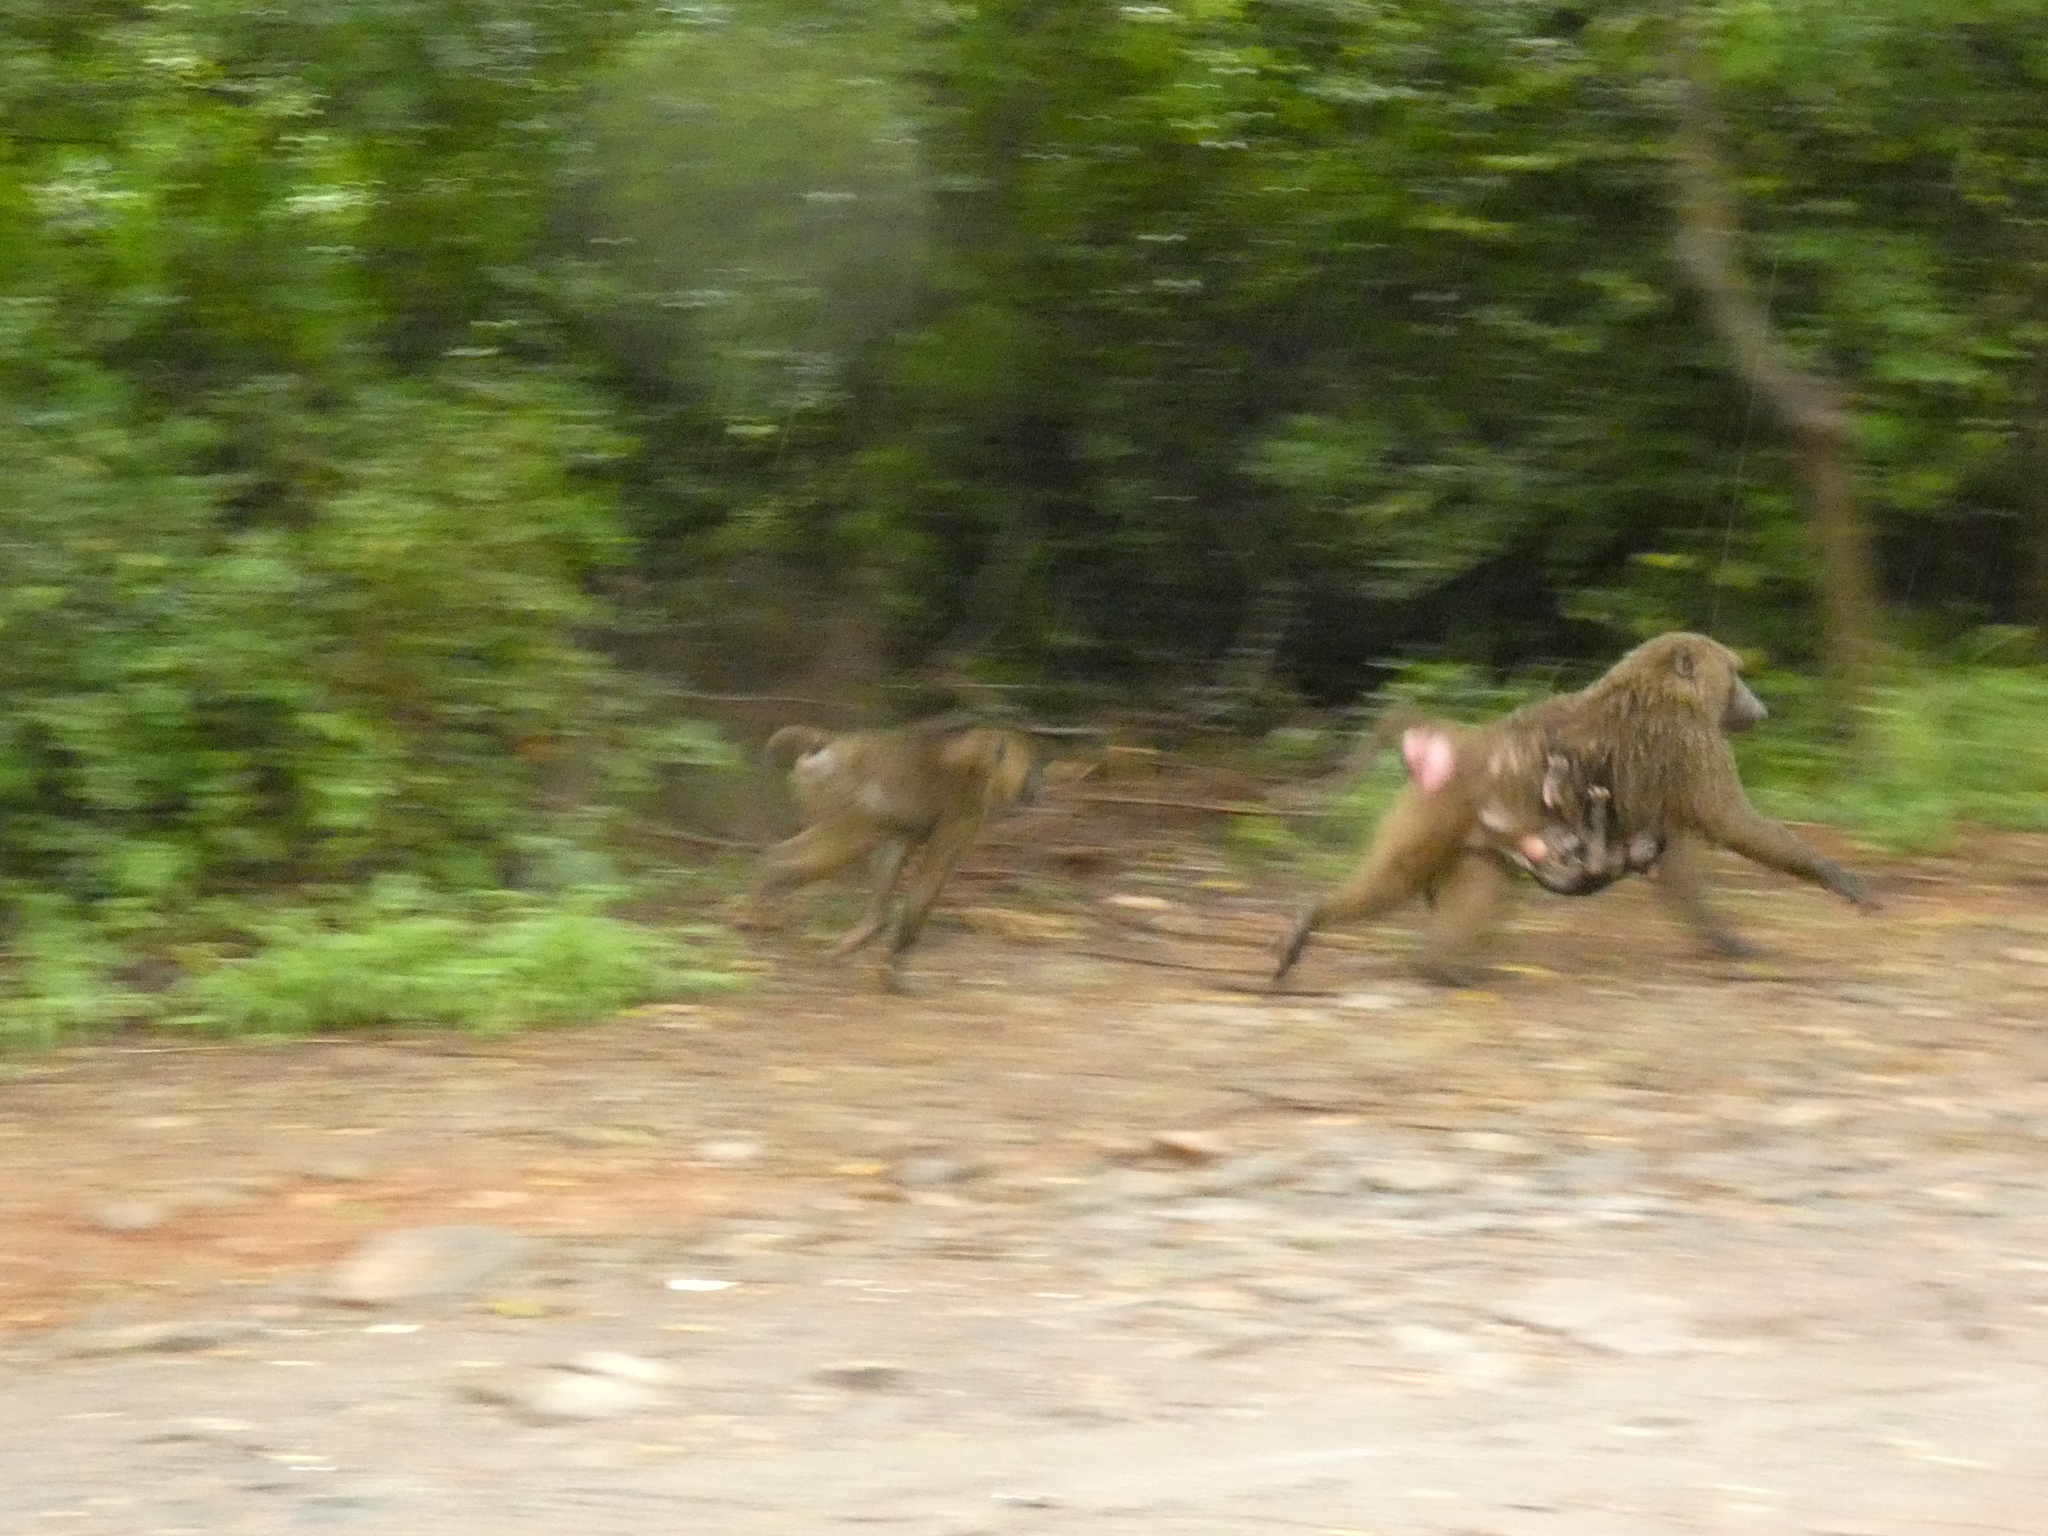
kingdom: Animalia
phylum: Chordata
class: Mammalia
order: Primates
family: Cercopithecidae
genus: Papio
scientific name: Papio anubis
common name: Olive baboon
